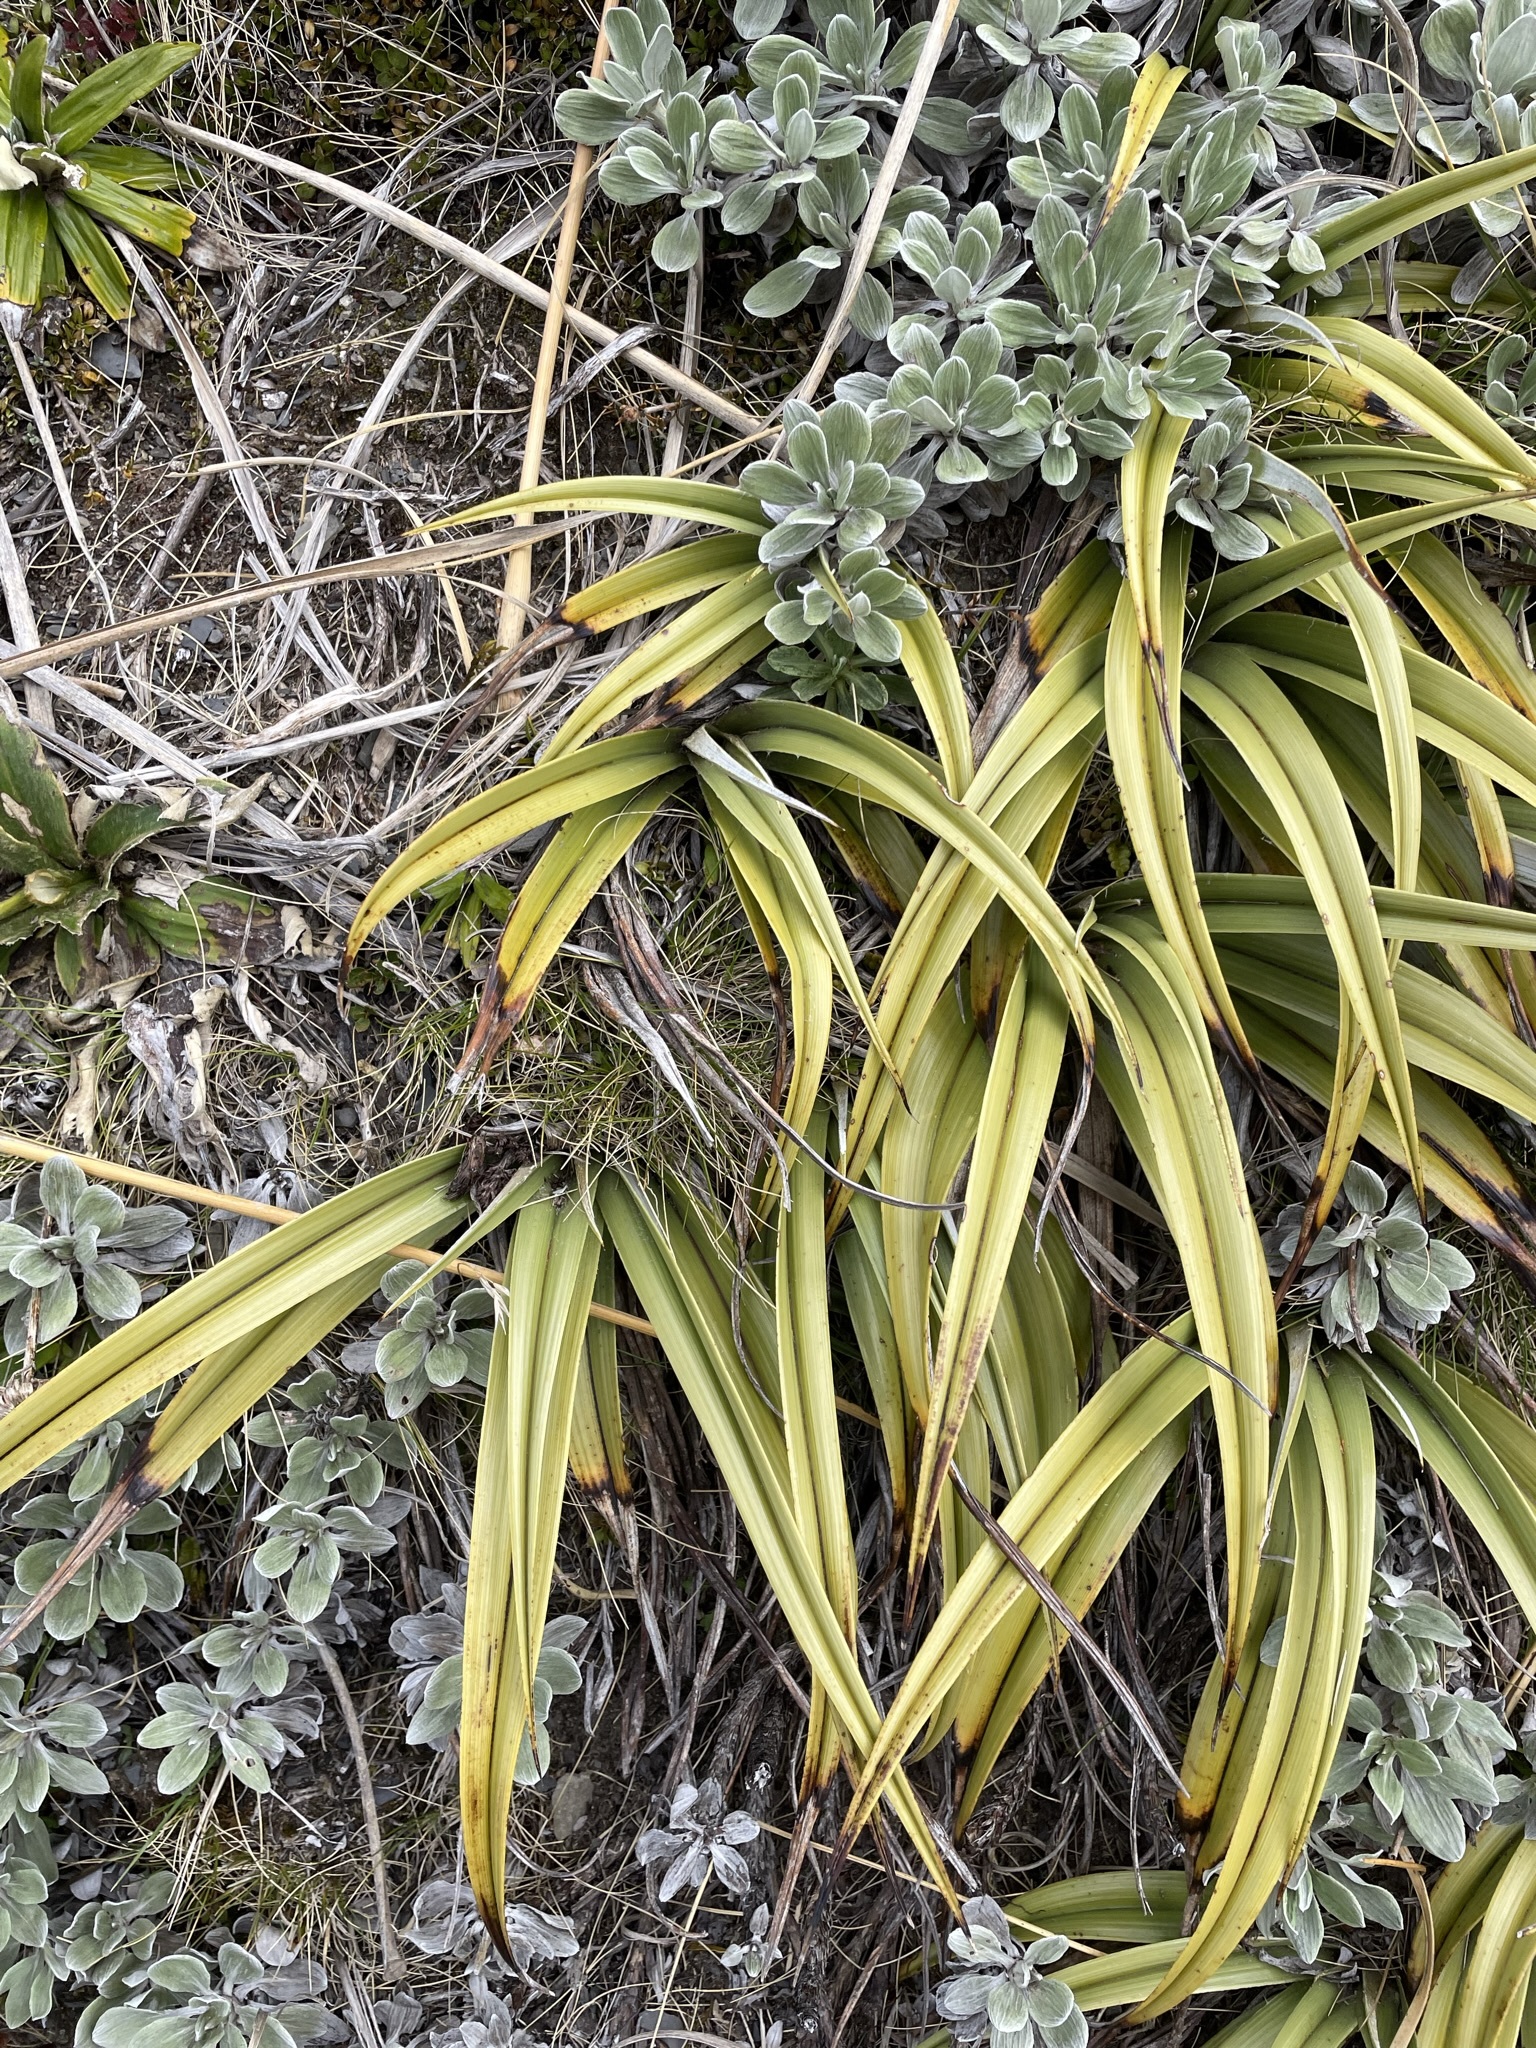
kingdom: Plantae
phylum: Tracheophyta
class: Liliopsida
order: Asparagales
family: Asteliaceae
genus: Astelia
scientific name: Astelia petriei
